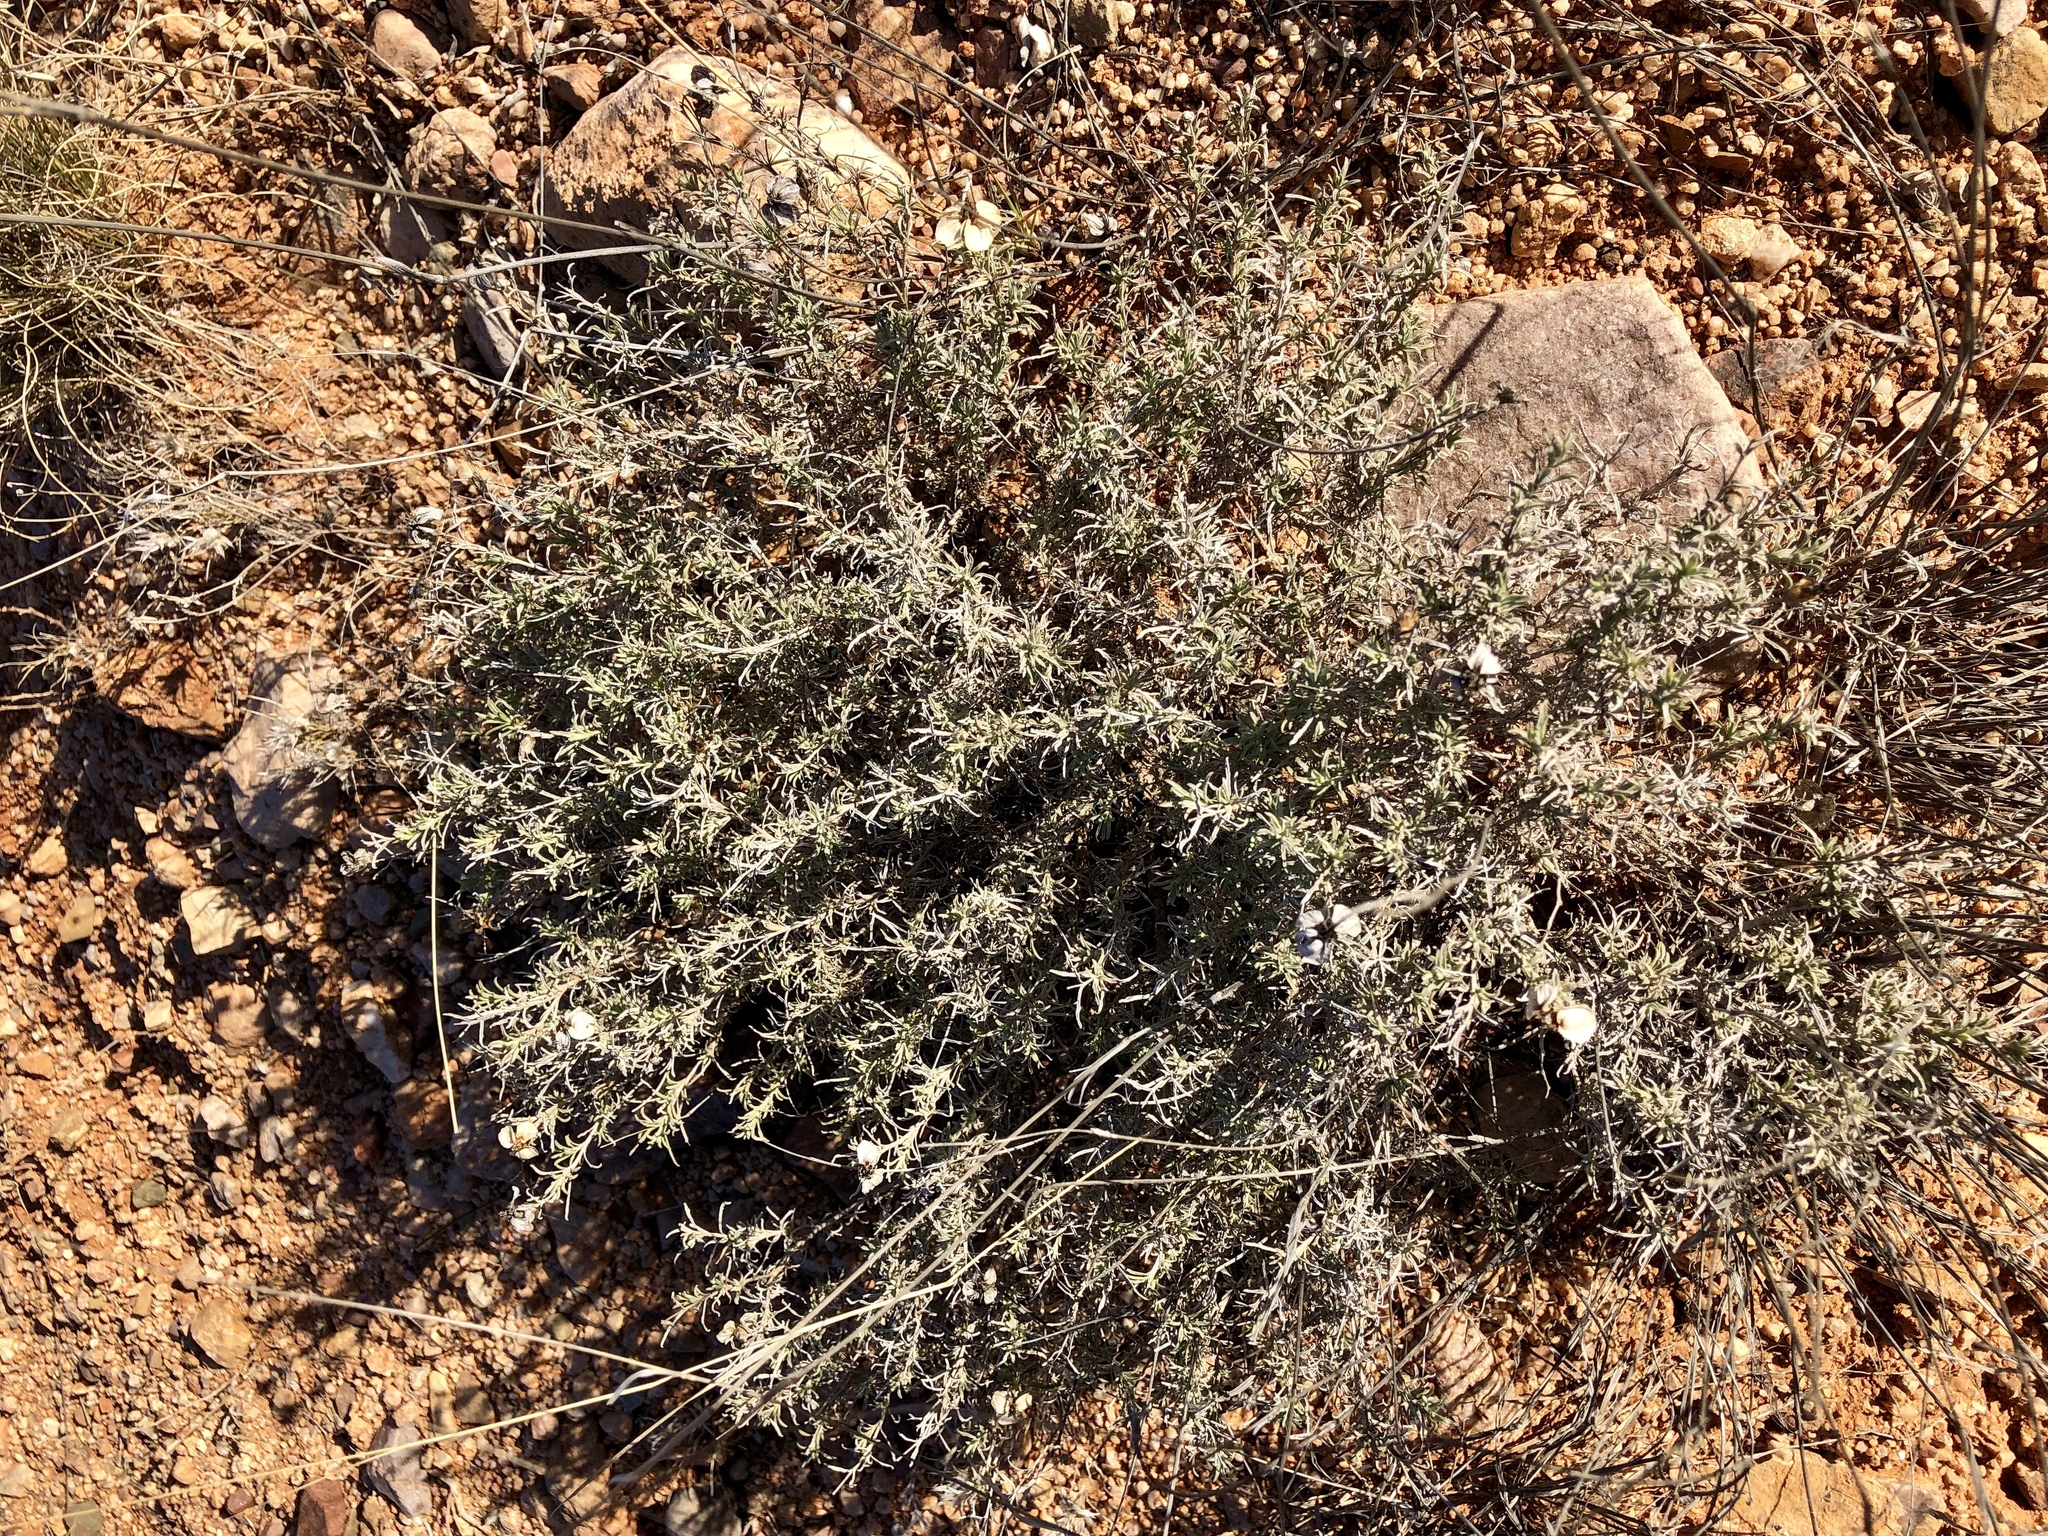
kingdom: Plantae
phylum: Tracheophyta
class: Magnoliopsida
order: Asterales
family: Asteraceae
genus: Zinnia
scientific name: Zinnia acerosa
